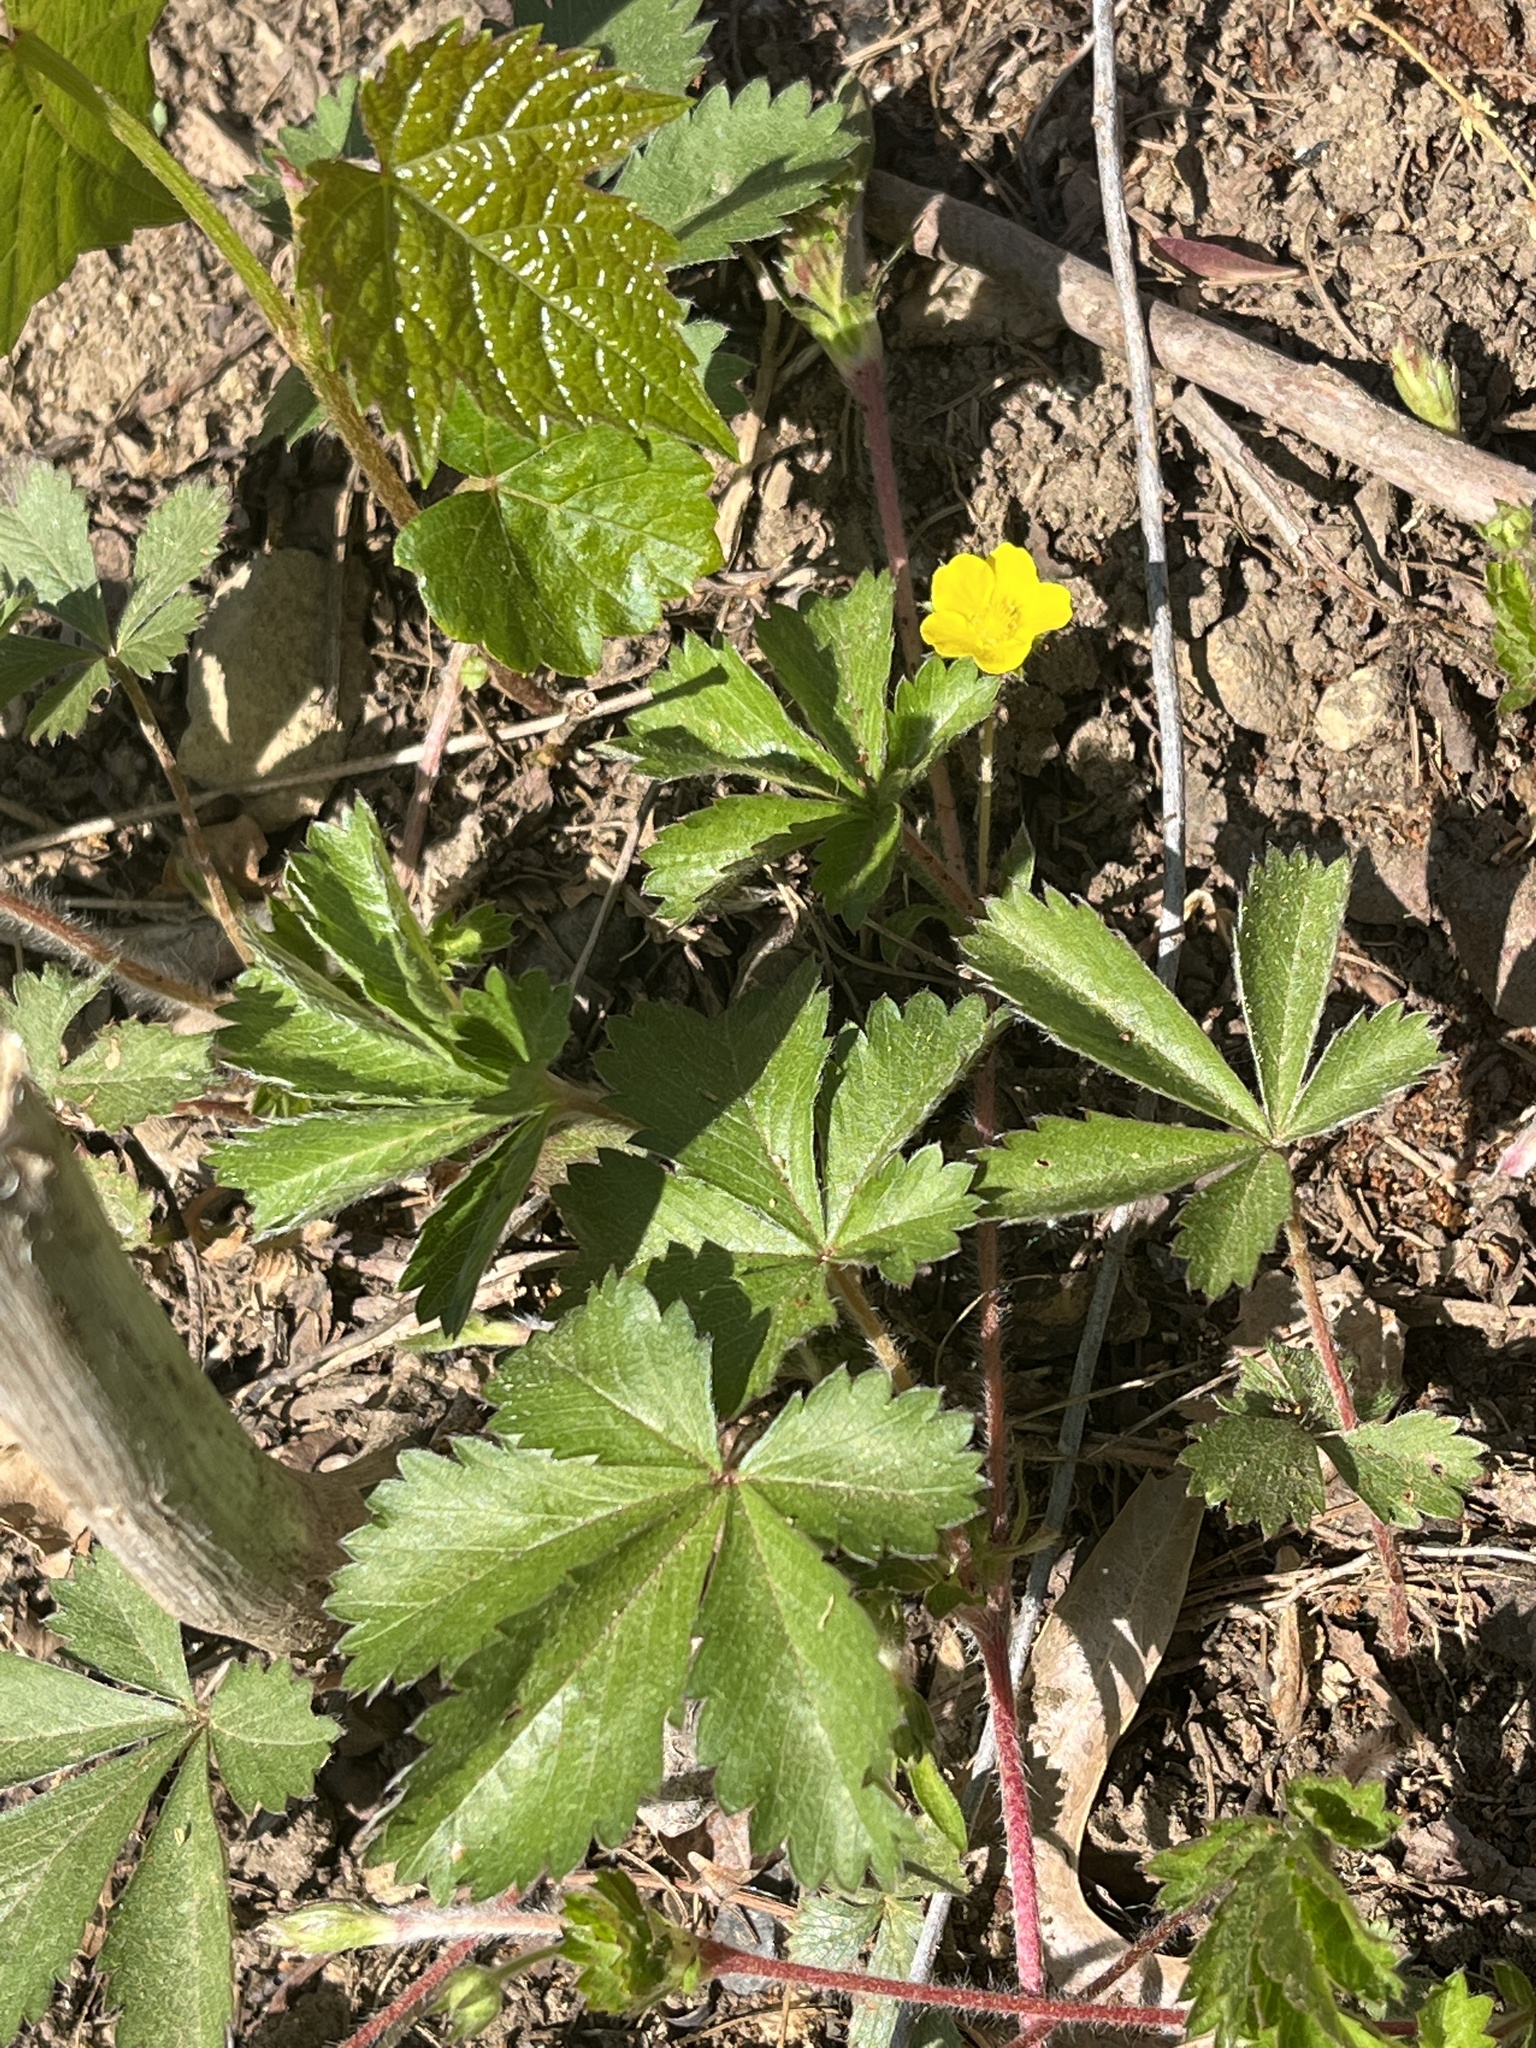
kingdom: Plantae
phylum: Tracheophyta
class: Magnoliopsida
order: Rosales
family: Rosaceae
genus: Potentilla
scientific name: Potentilla canadensis
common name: Canada cinquefoil
